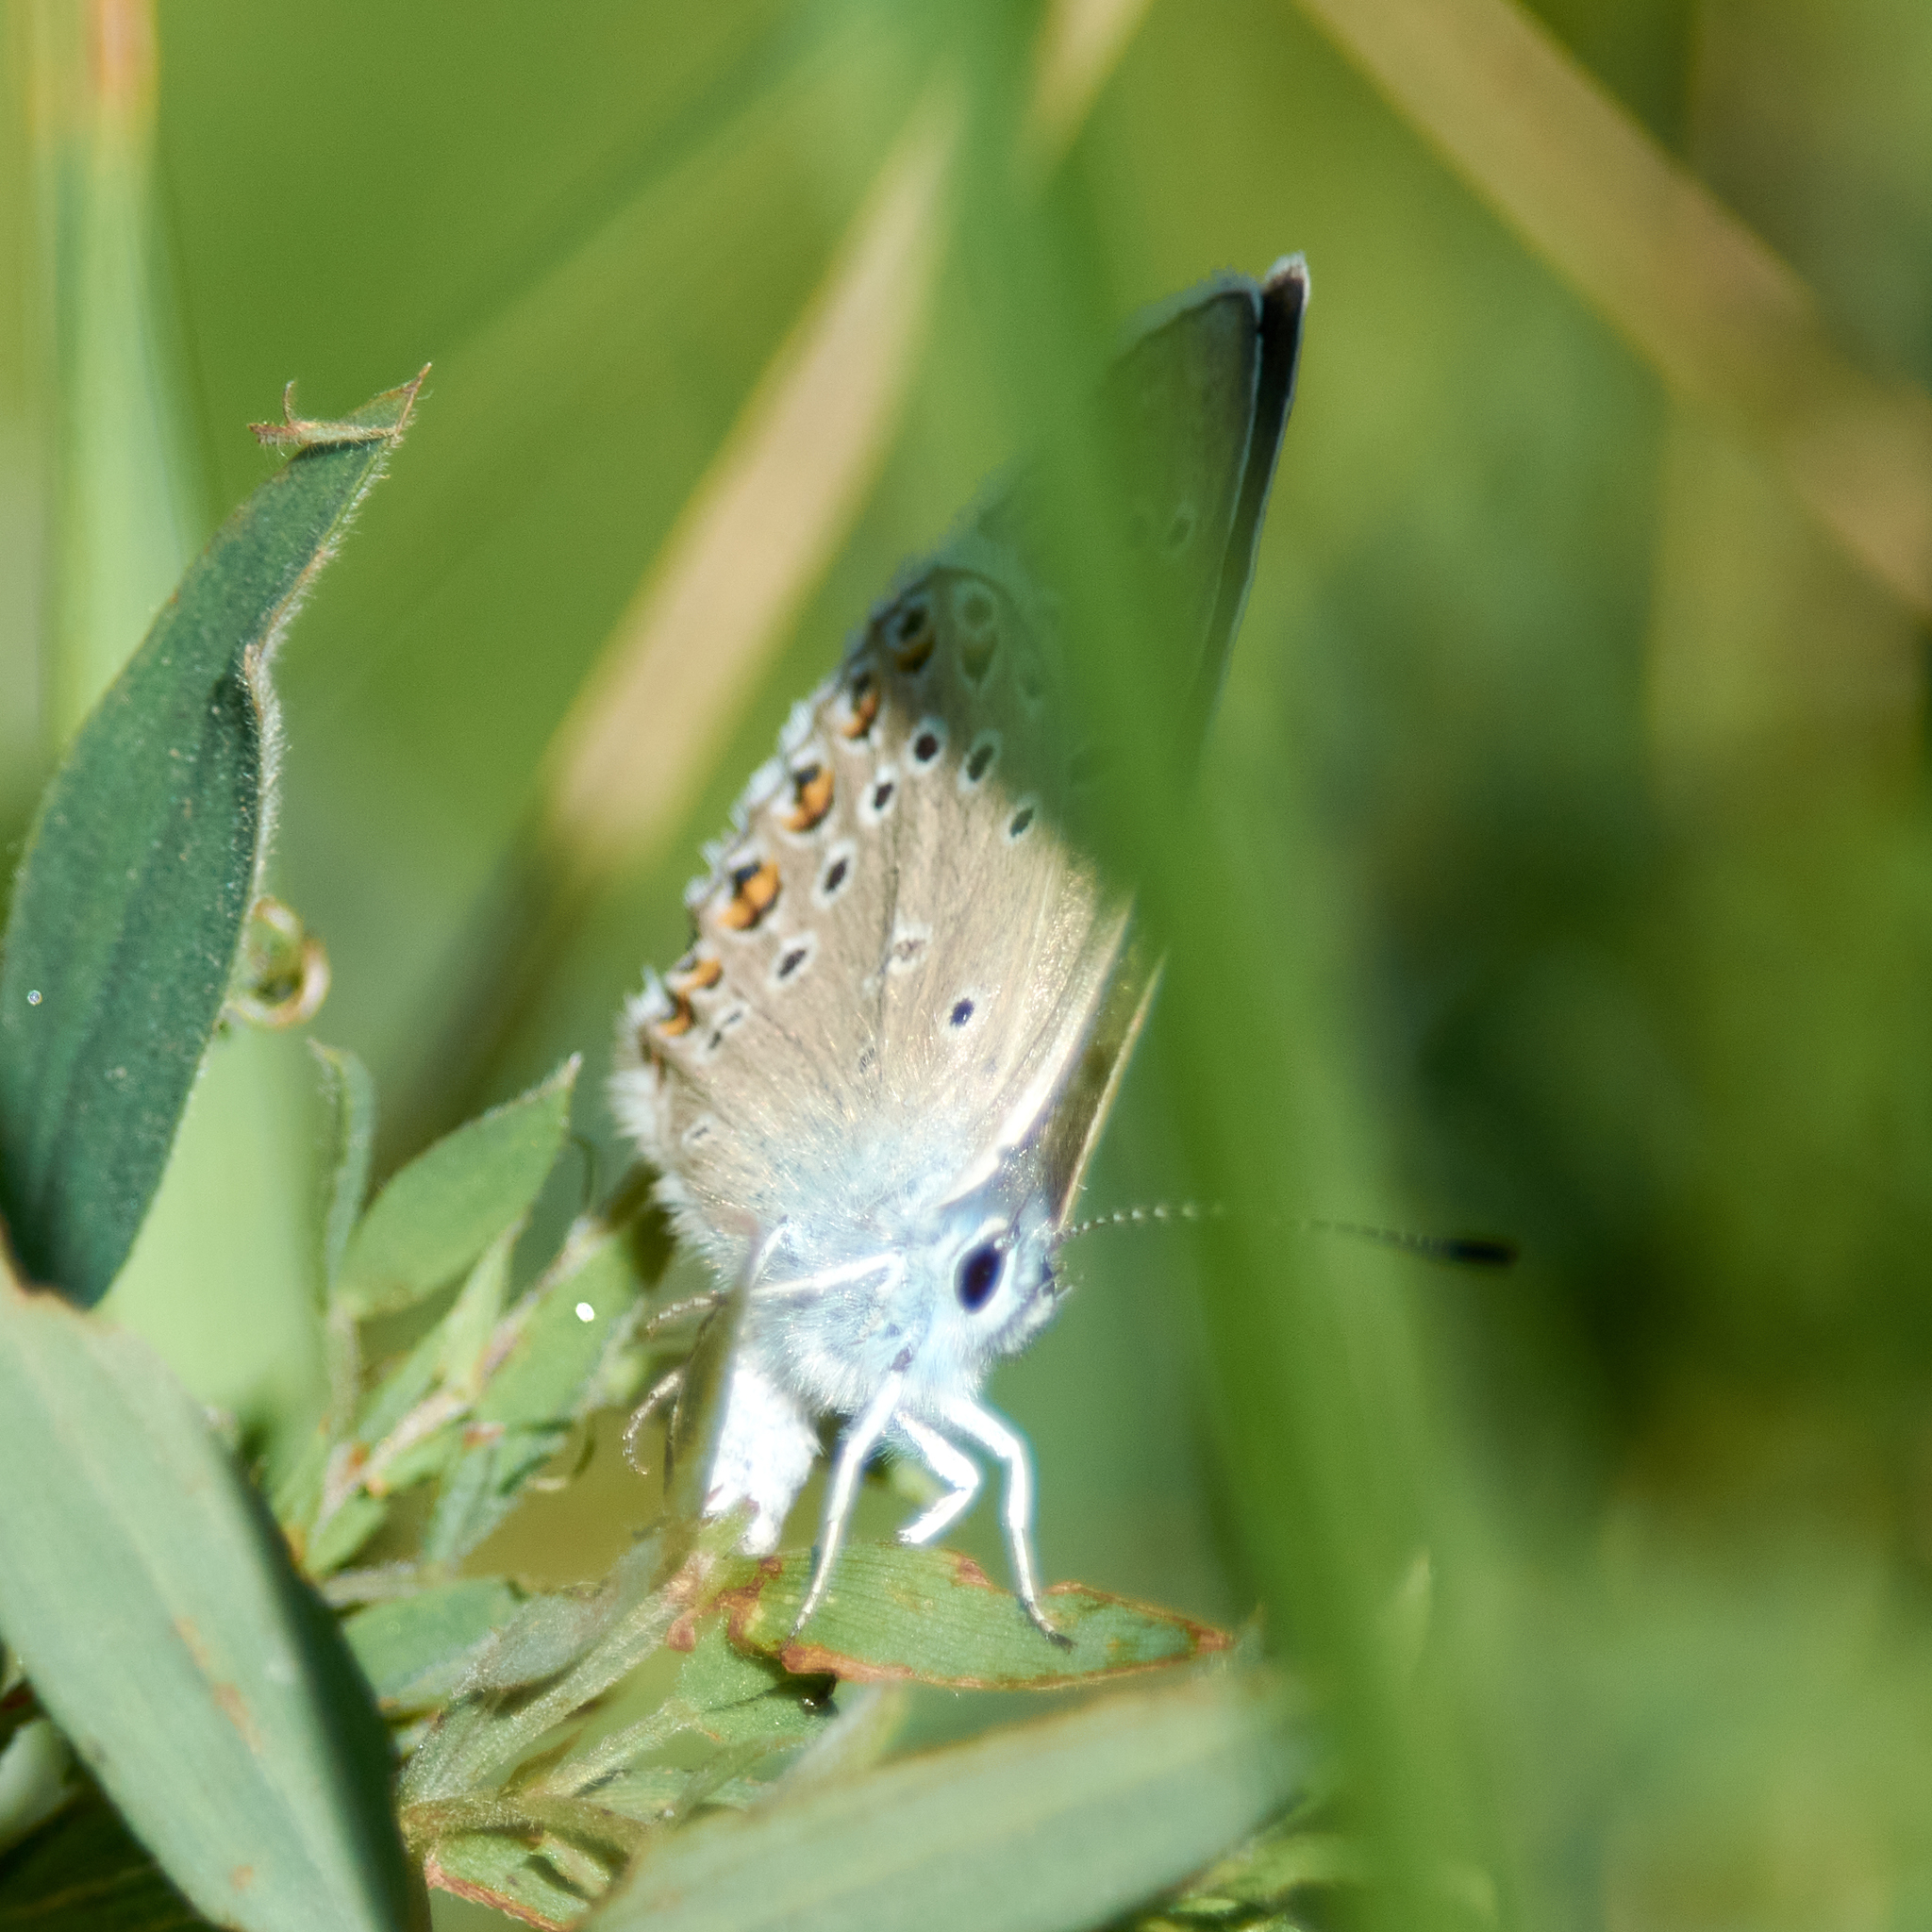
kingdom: Animalia
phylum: Arthropoda
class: Insecta
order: Lepidoptera
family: Lycaenidae
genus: Plebejus
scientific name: Plebejus amanda
